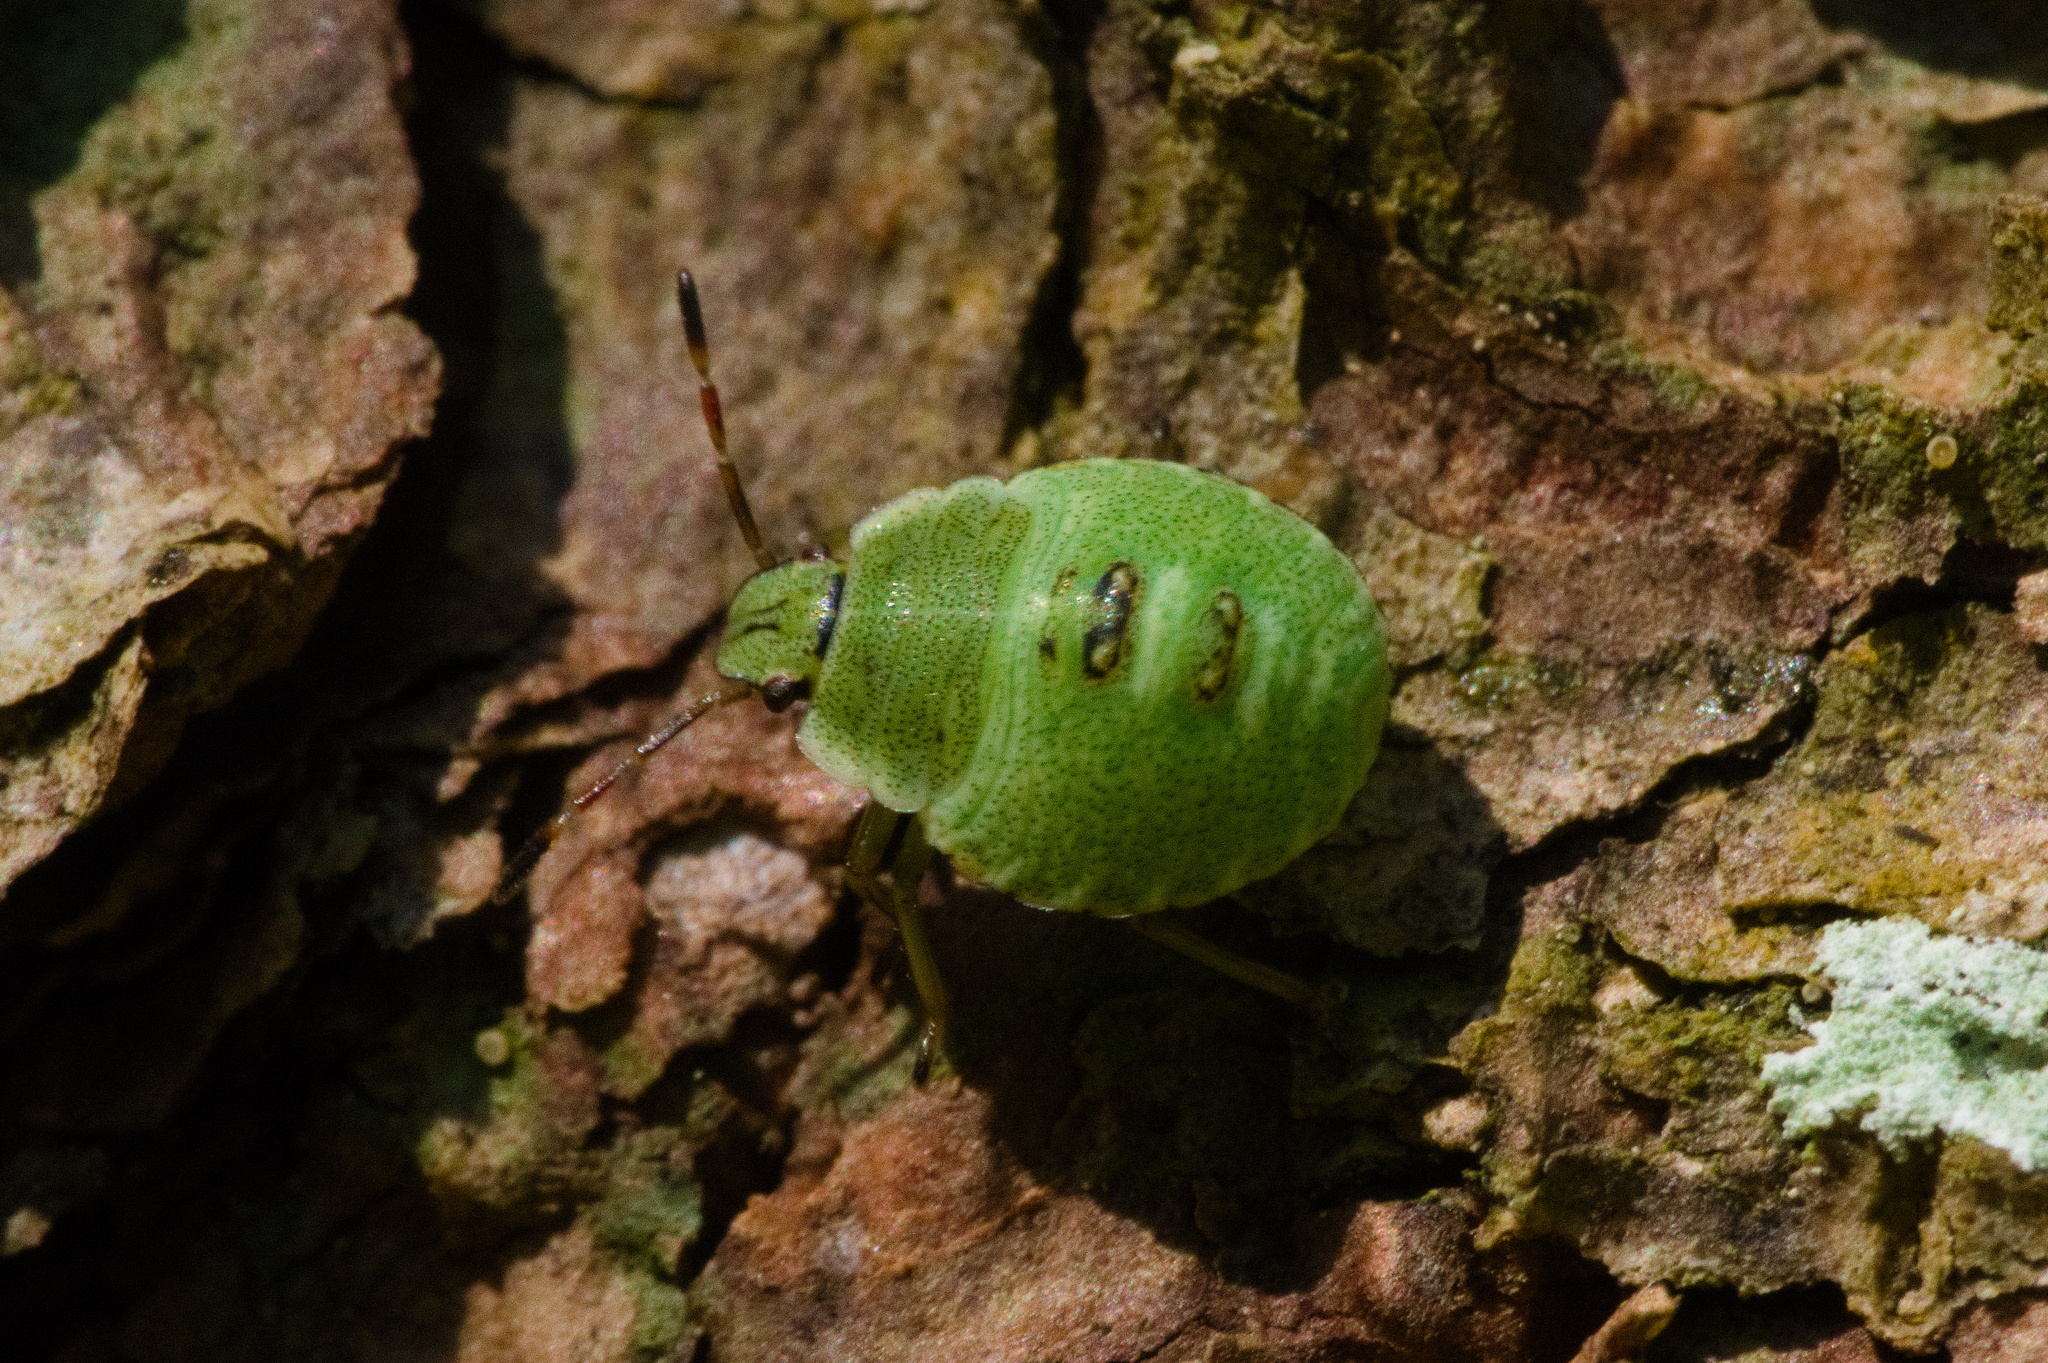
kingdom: Animalia
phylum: Arthropoda
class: Insecta
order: Hemiptera
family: Pentatomidae
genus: Palomena
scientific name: Palomena prasina
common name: Green shieldbug
